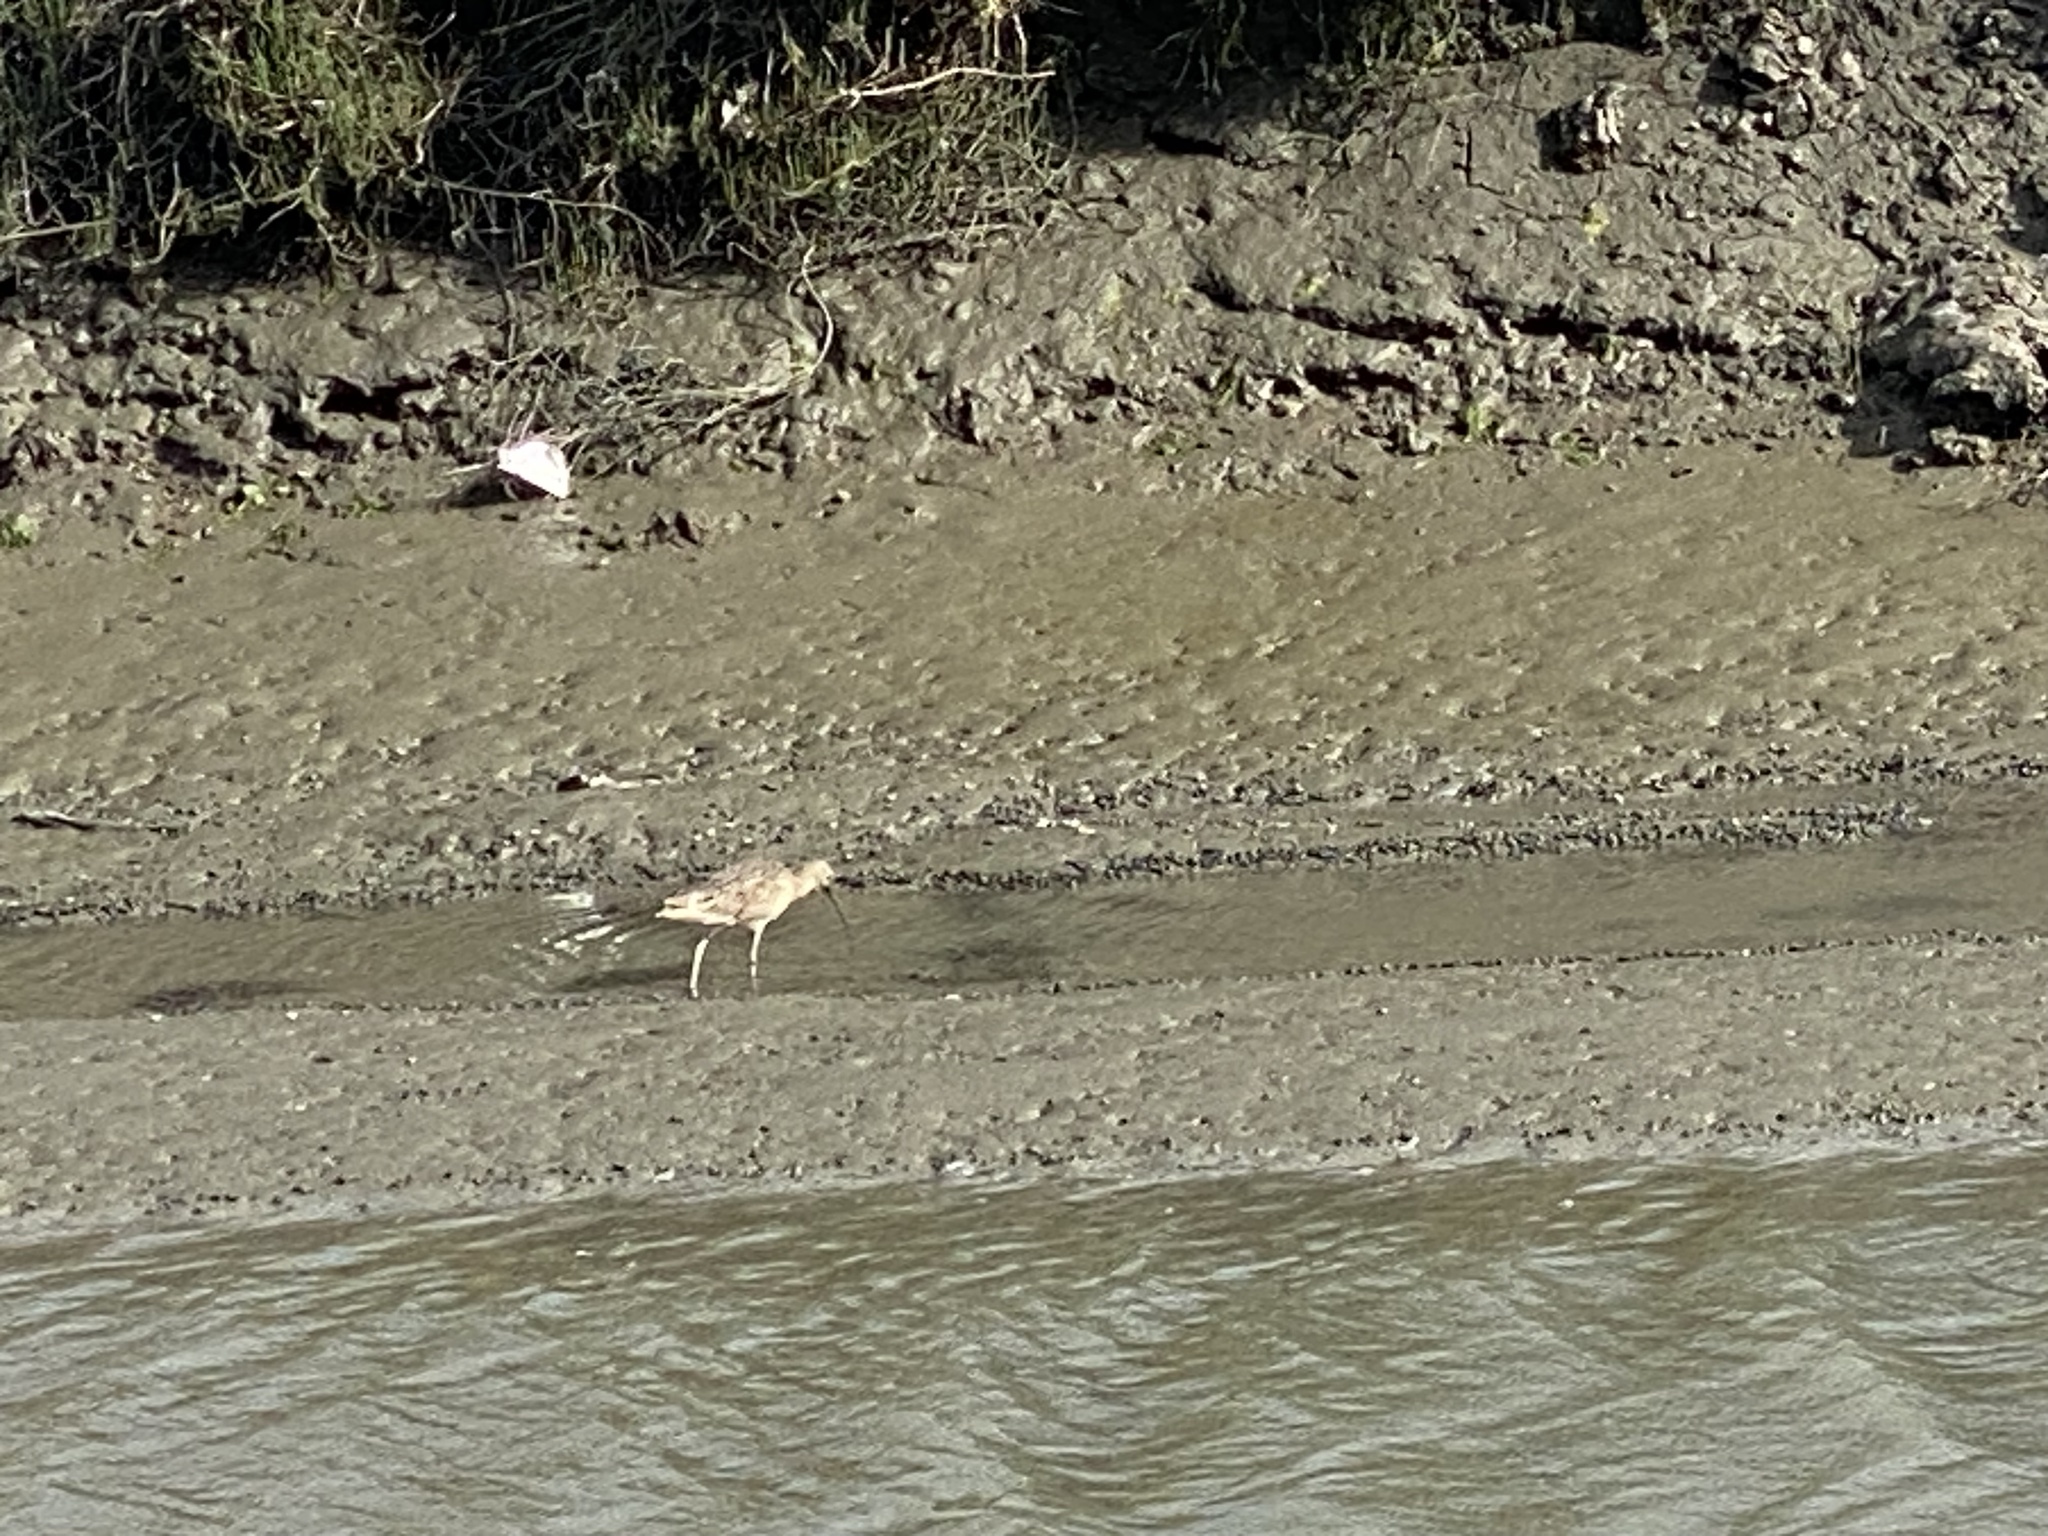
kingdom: Animalia
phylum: Chordata
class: Aves
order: Charadriiformes
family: Scolopacidae
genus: Numenius
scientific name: Numenius americanus
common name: Long-billed curlew
